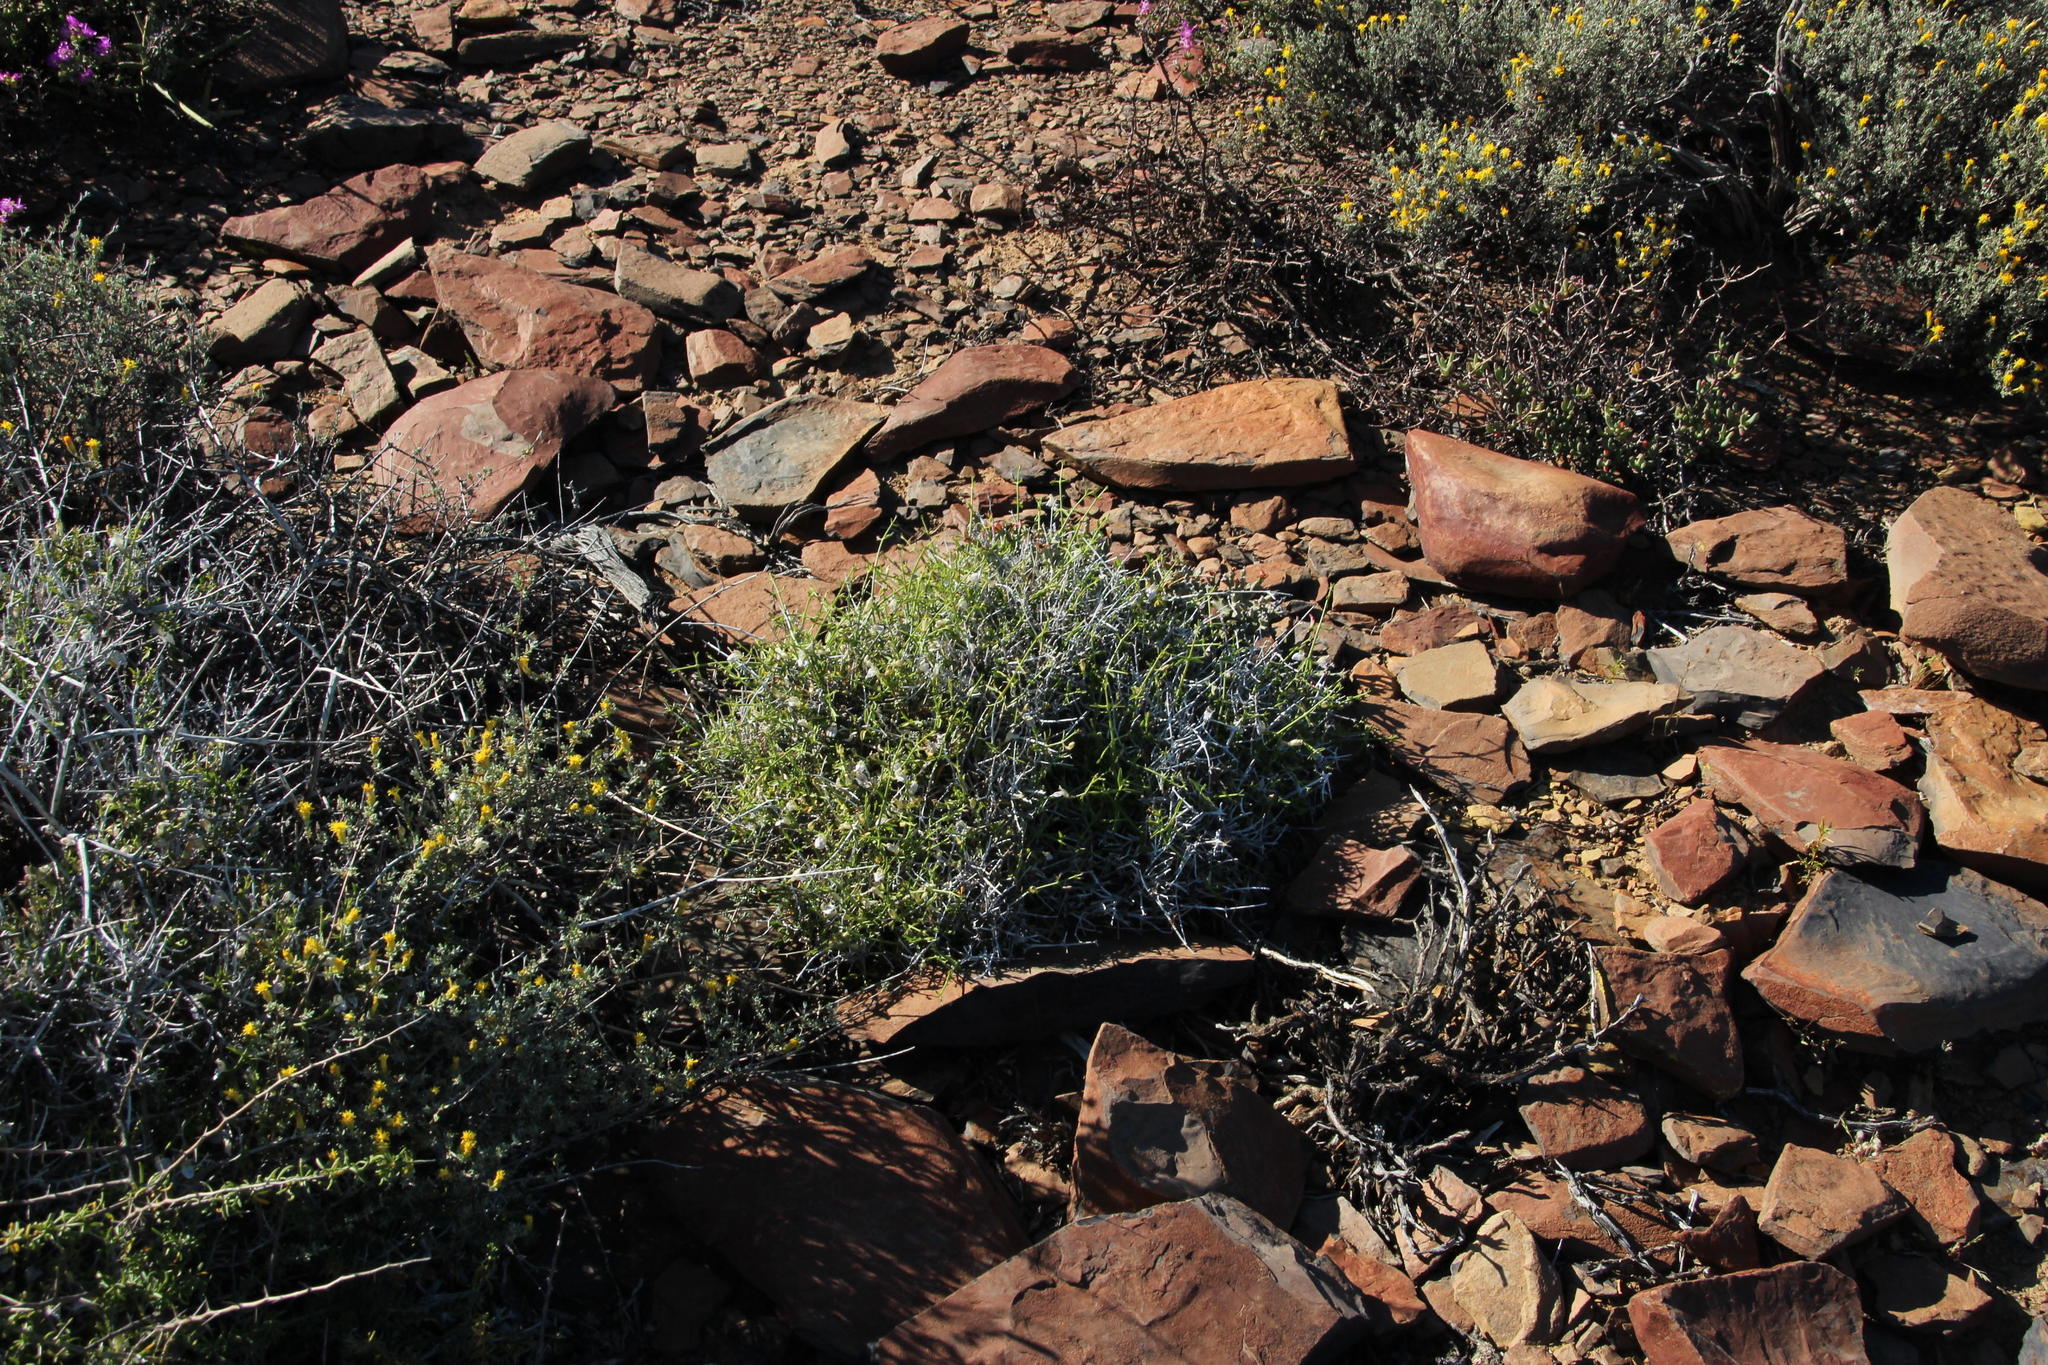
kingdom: Plantae
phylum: Tracheophyta
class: Magnoliopsida
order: Lamiales
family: Acanthaceae
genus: Pogonospermum
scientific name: Pogonospermum
